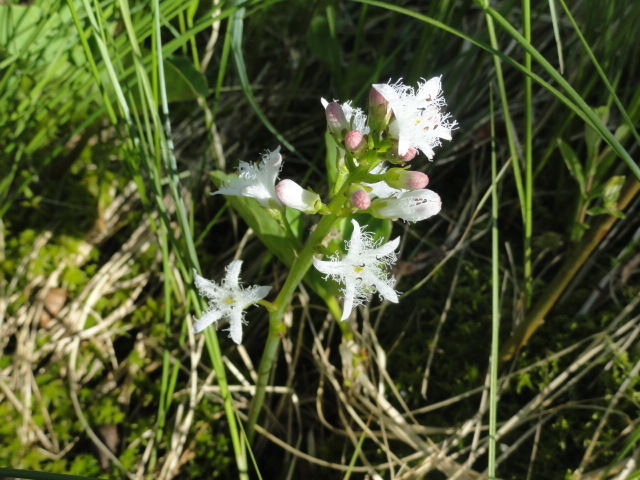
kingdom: Plantae
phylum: Tracheophyta
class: Magnoliopsida
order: Asterales
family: Menyanthaceae
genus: Menyanthes
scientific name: Menyanthes trifoliata
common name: Bogbean
